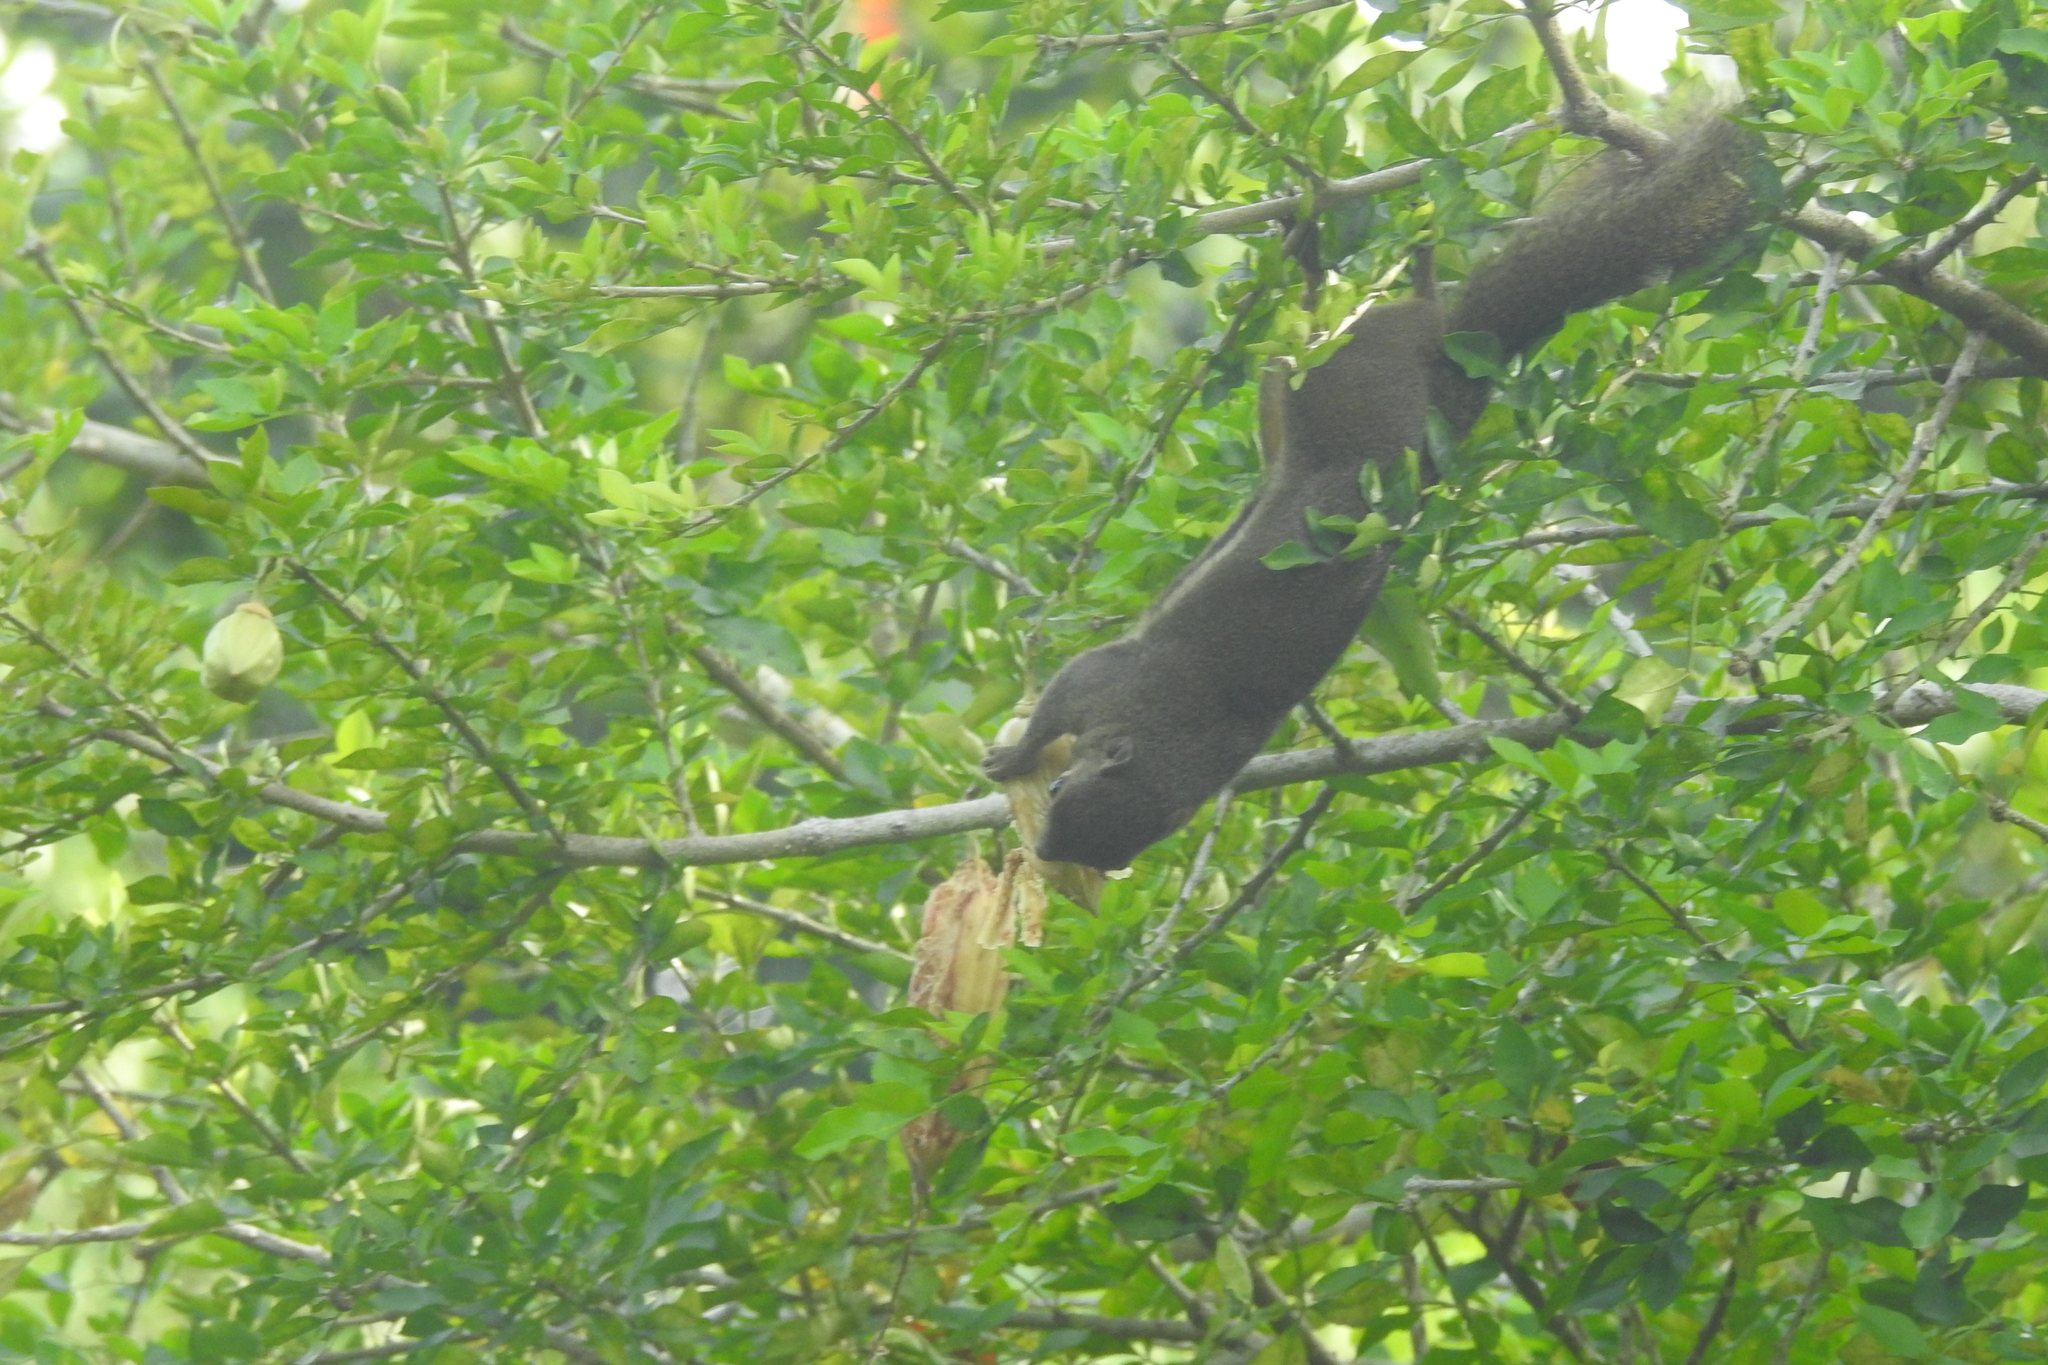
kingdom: Animalia
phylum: Chordata
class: Mammalia
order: Rodentia
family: Sciuridae
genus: Callosciurus
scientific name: Callosciurus notatus
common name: Plantain squirrel
